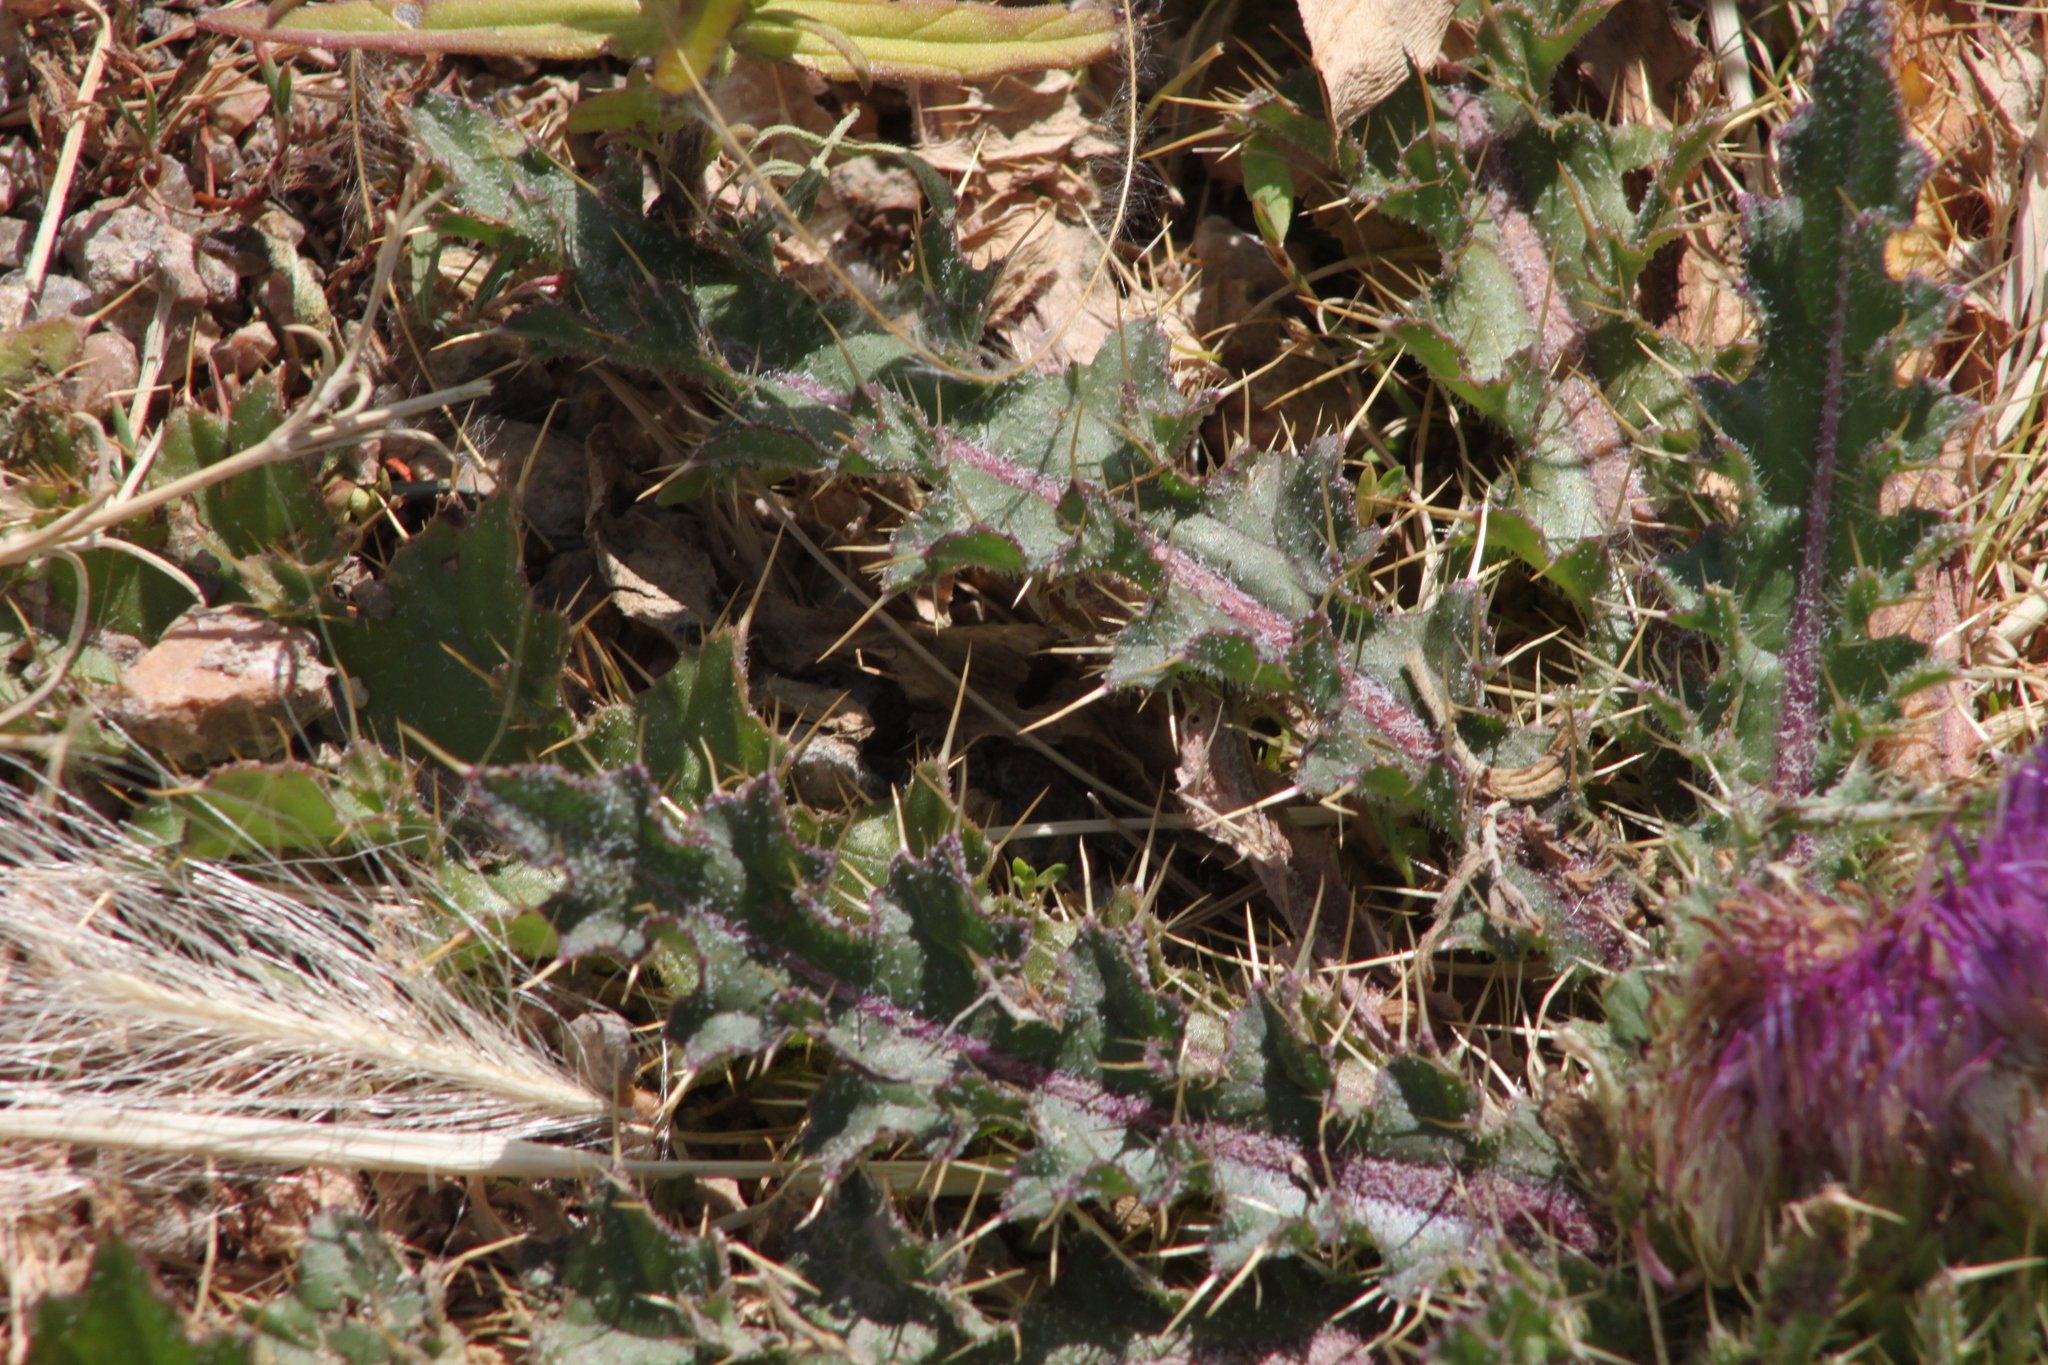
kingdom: Plantae
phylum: Tracheophyta
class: Magnoliopsida
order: Asterales
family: Asteraceae
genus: Cirsium
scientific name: Cirsium esculentum
